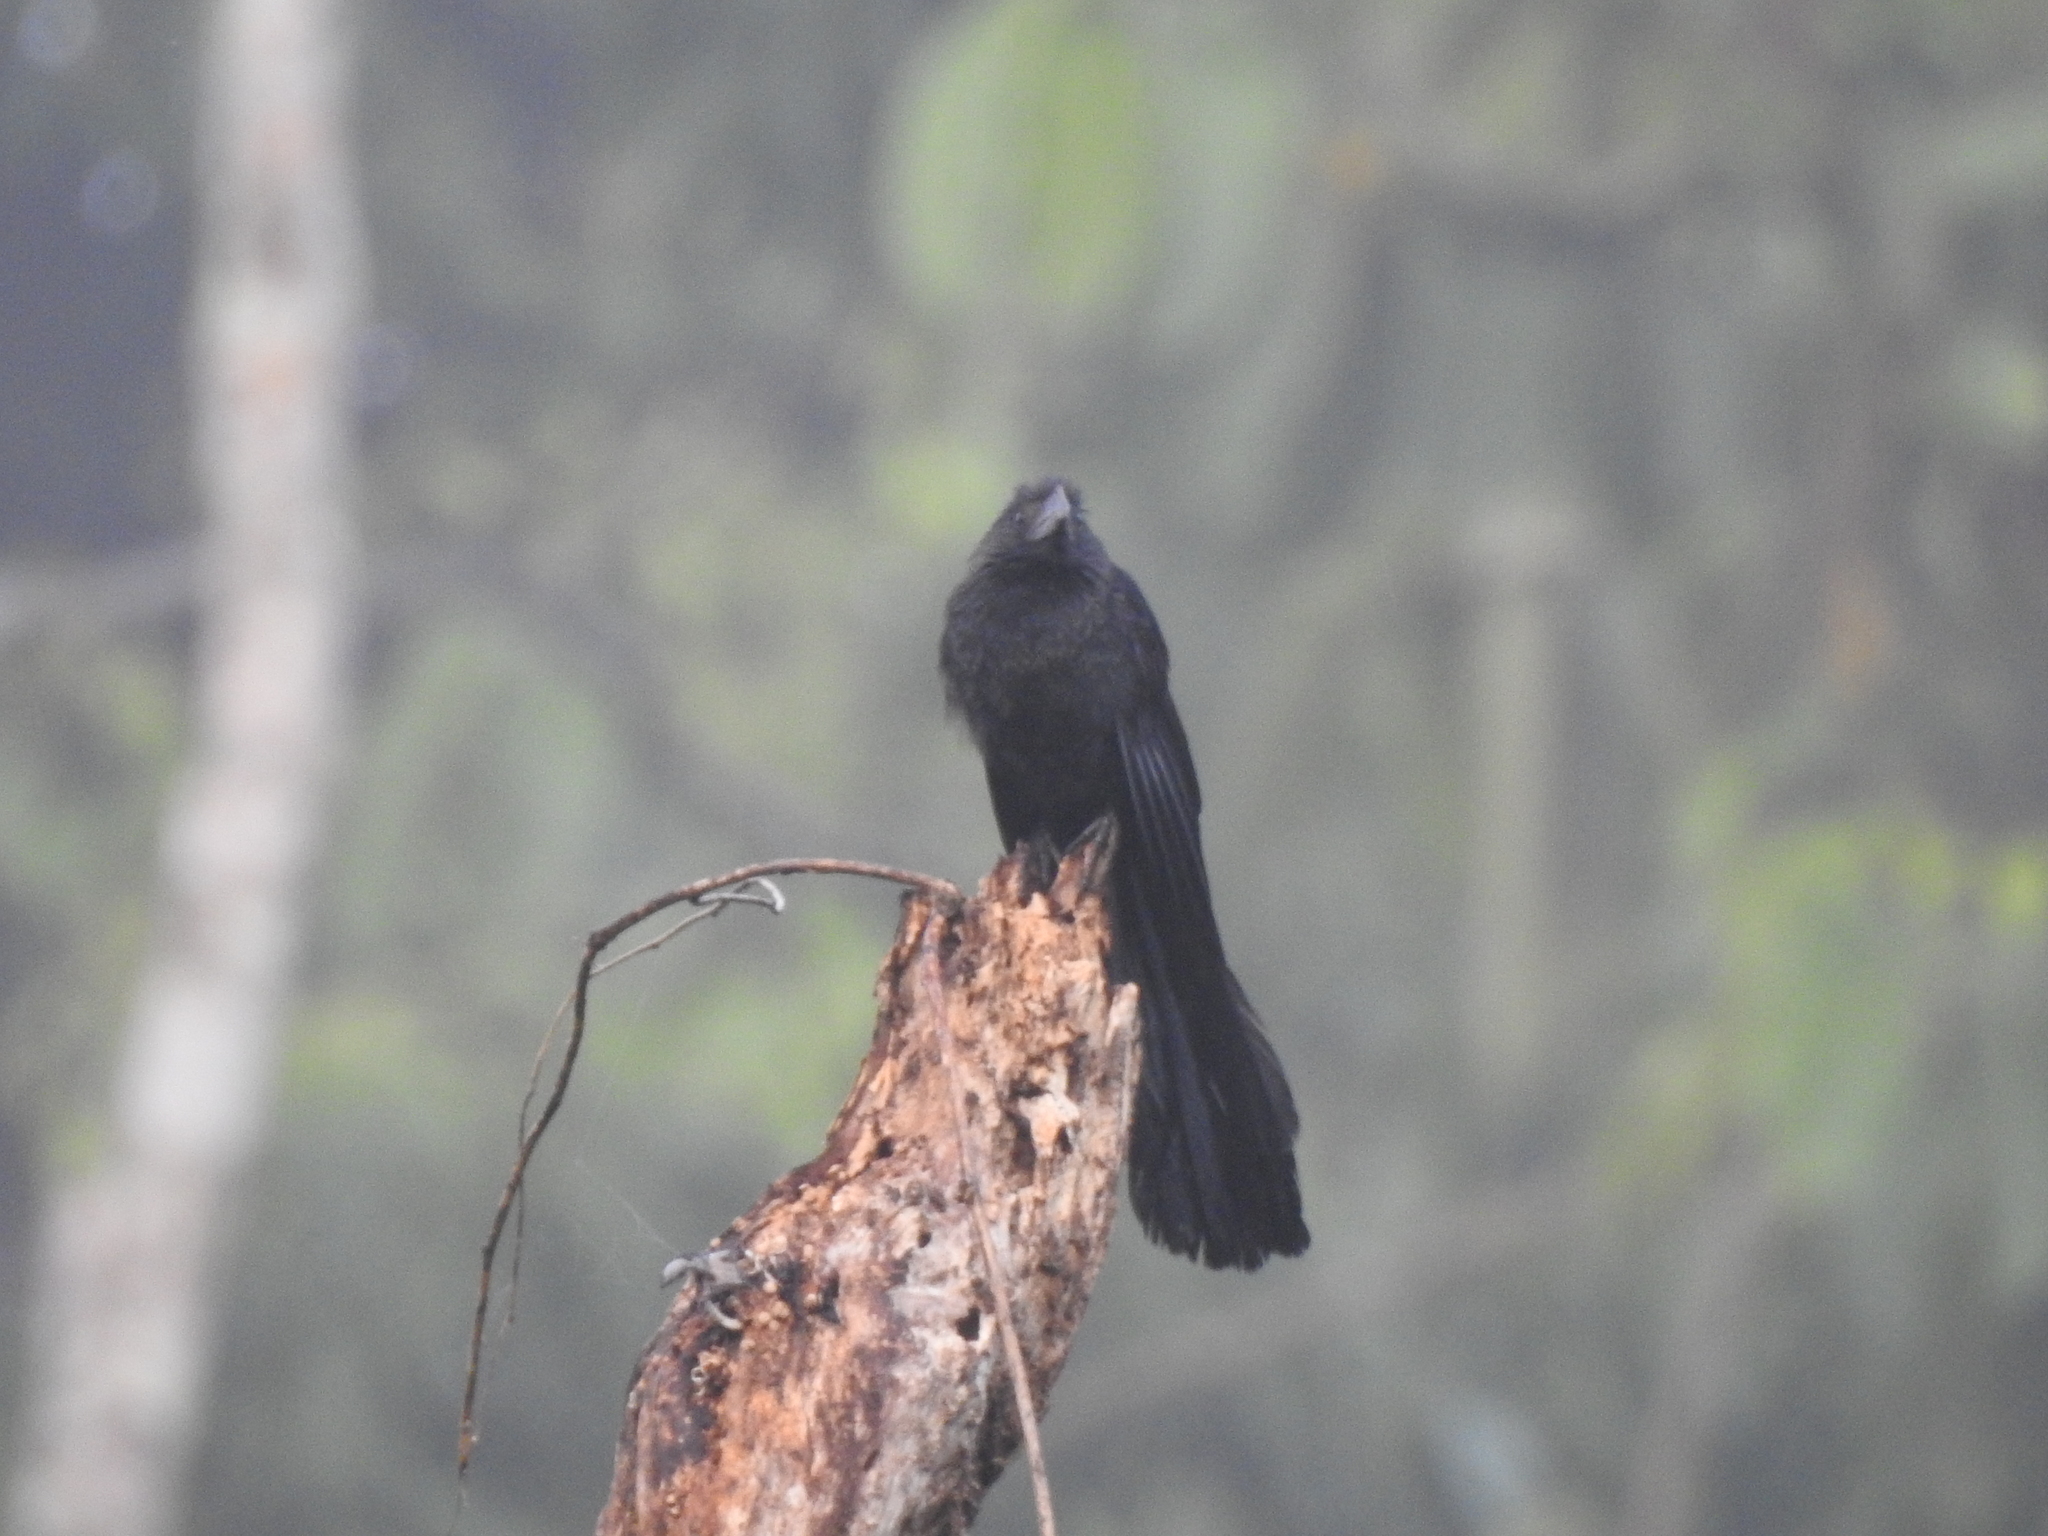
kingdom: Animalia
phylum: Chordata
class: Aves
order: Cuculiformes
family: Cuculidae
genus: Crotophaga
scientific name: Crotophaga sulcirostris
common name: Groove-billed ani
